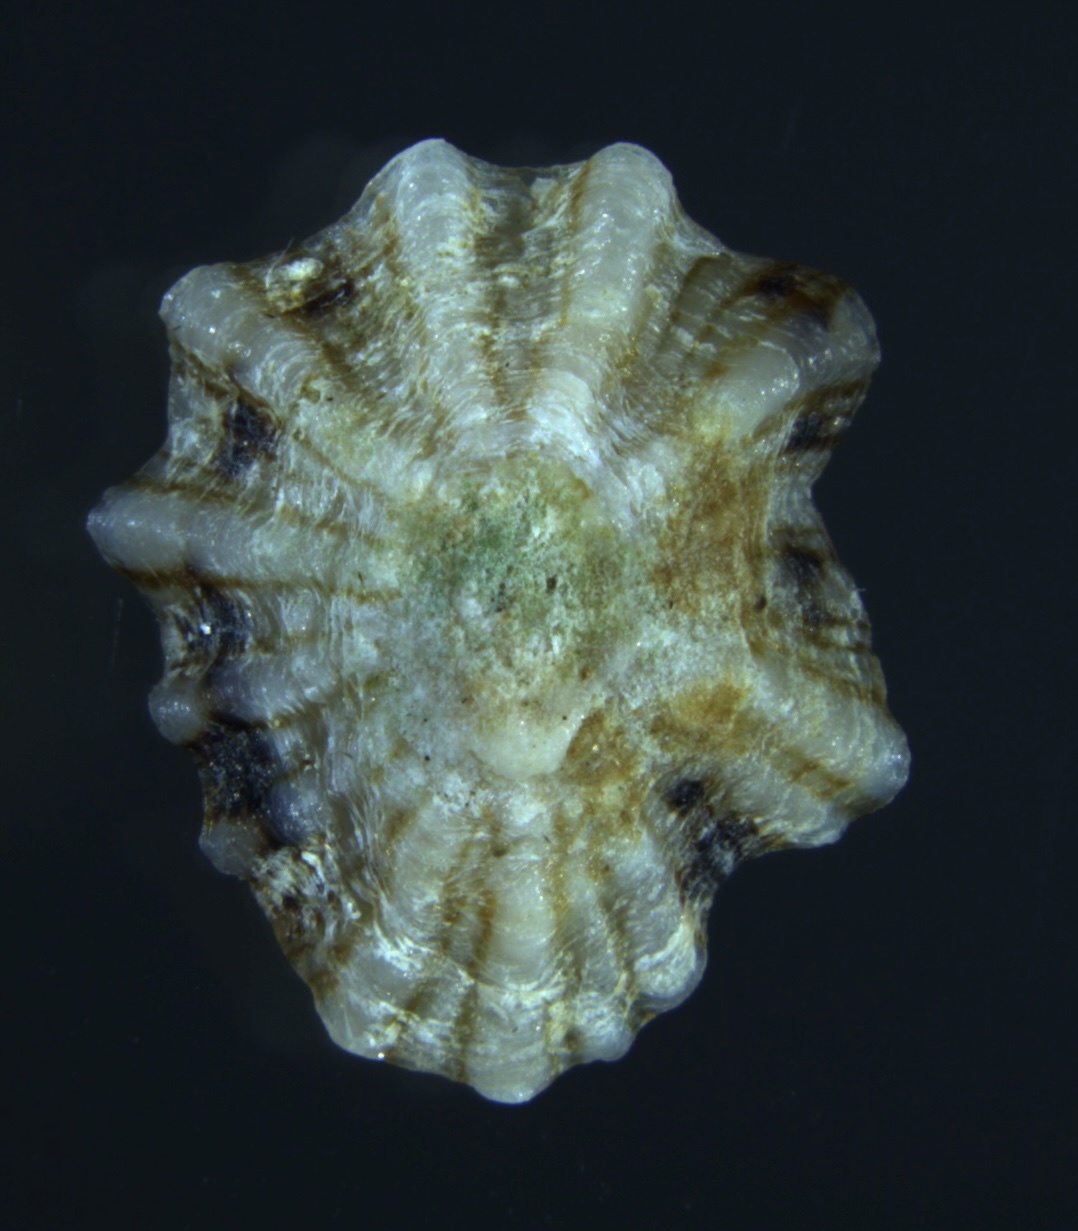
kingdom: Animalia
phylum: Mollusca
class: Gastropoda
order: Siphonariida
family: Siphonariidae
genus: Siphonaria
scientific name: Siphonaria alternata
